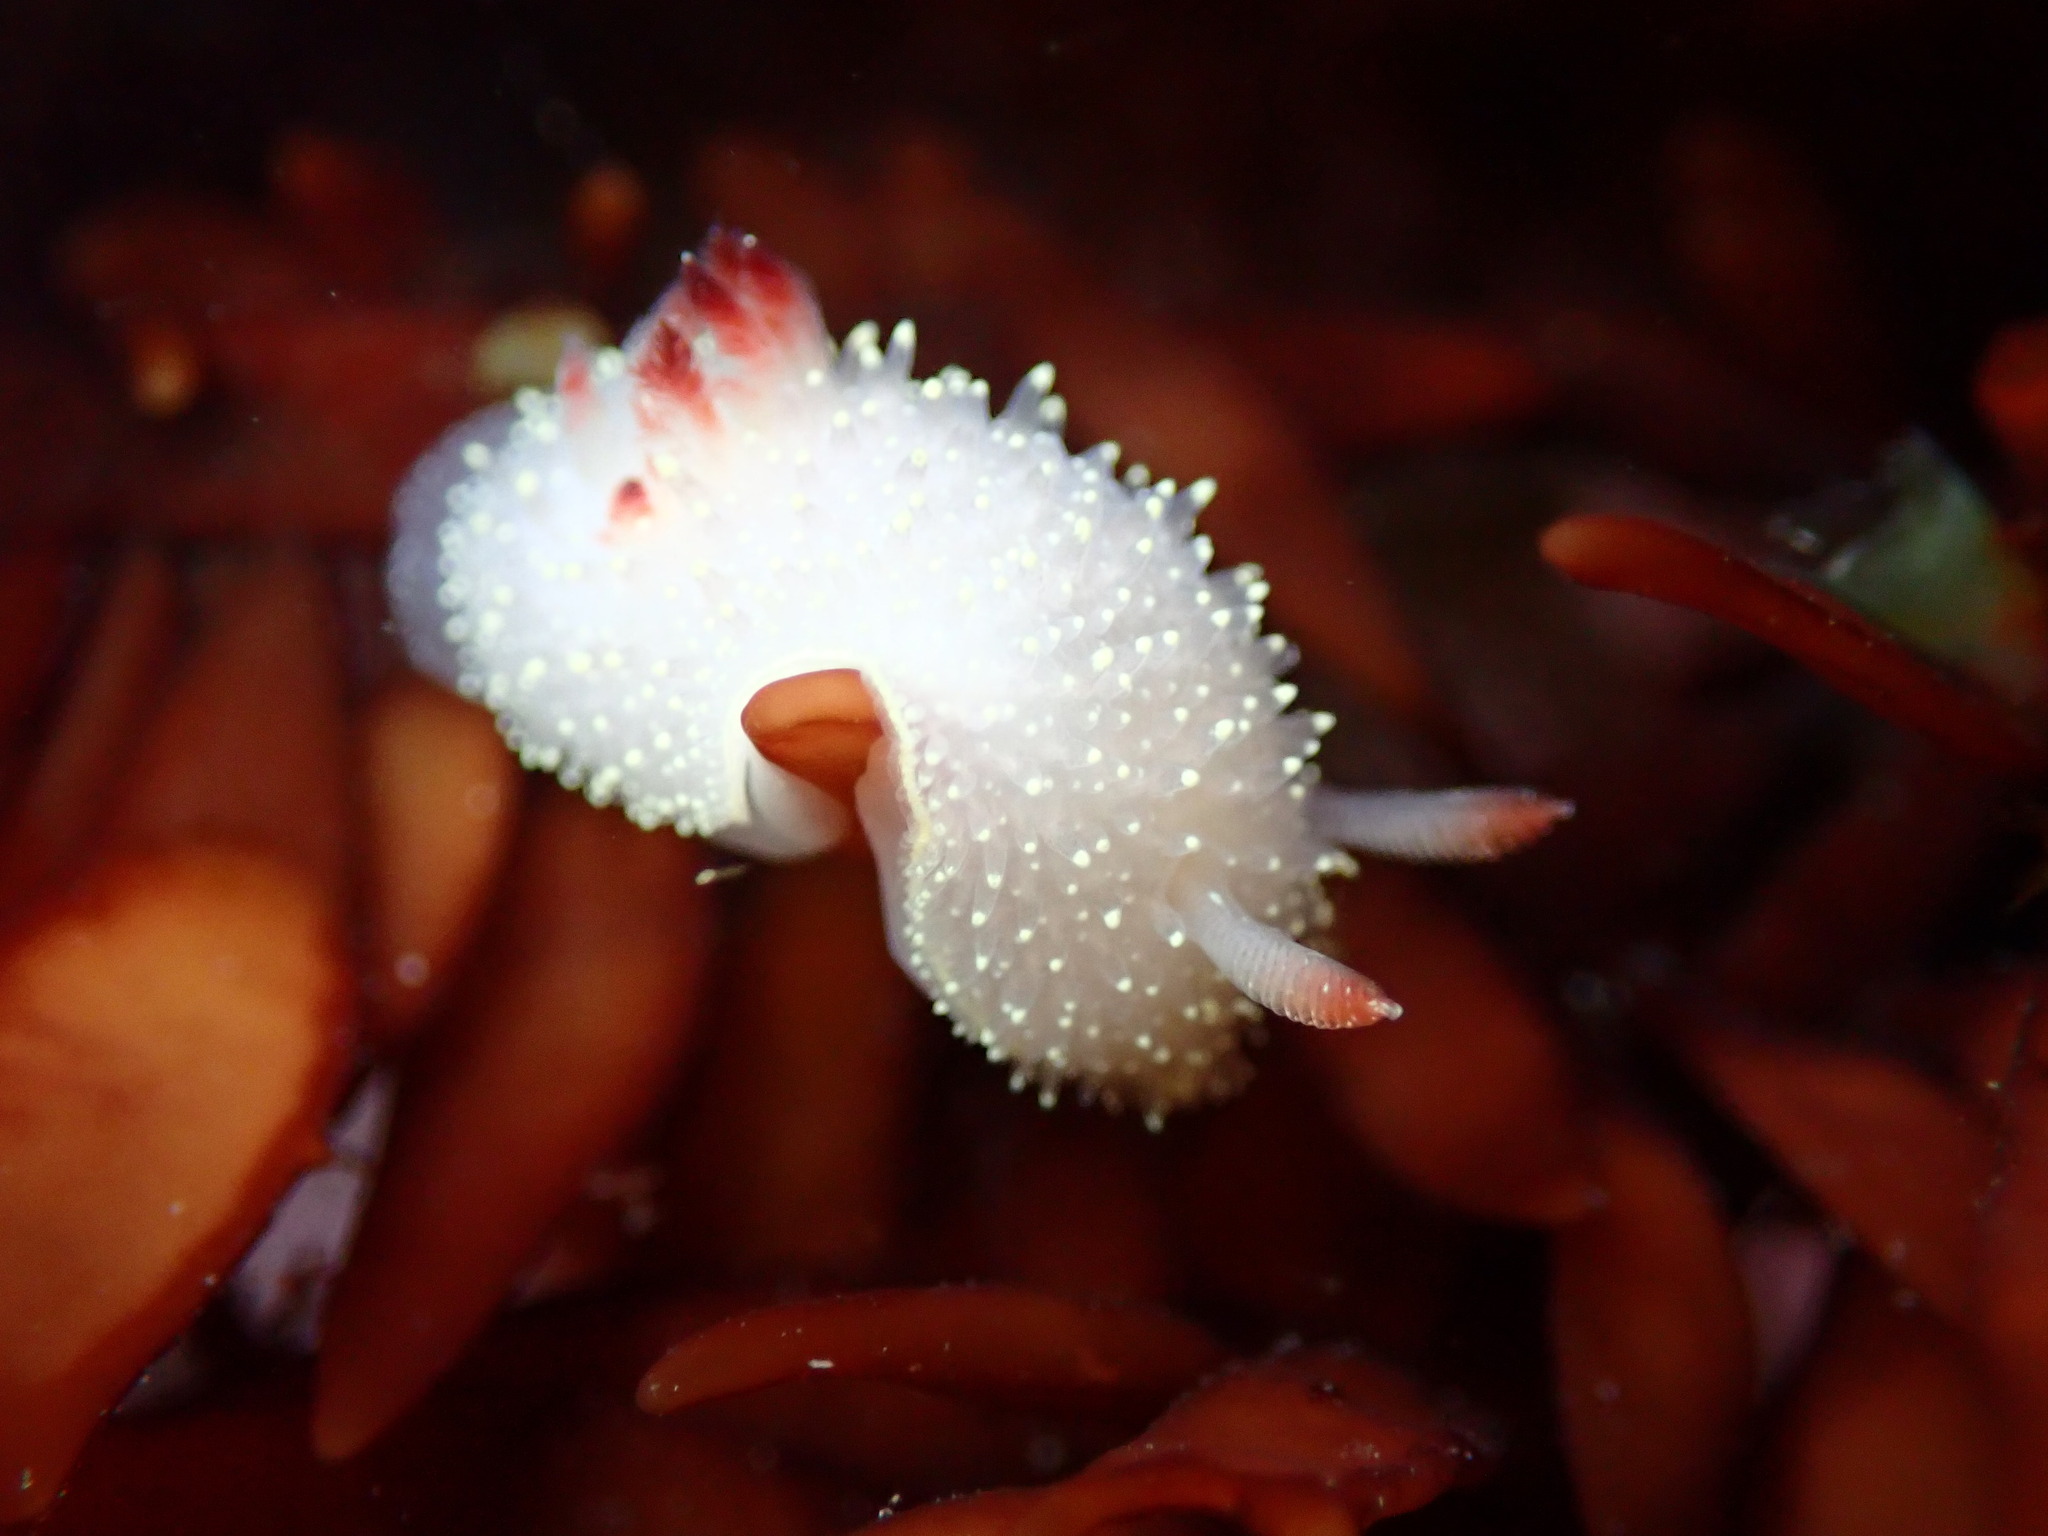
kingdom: Animalia
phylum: Mollusca
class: Gastropoda
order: Nudibranchia
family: Onchidorididae
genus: Acanthodoris
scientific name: Acanthodoris nanaimoensis
